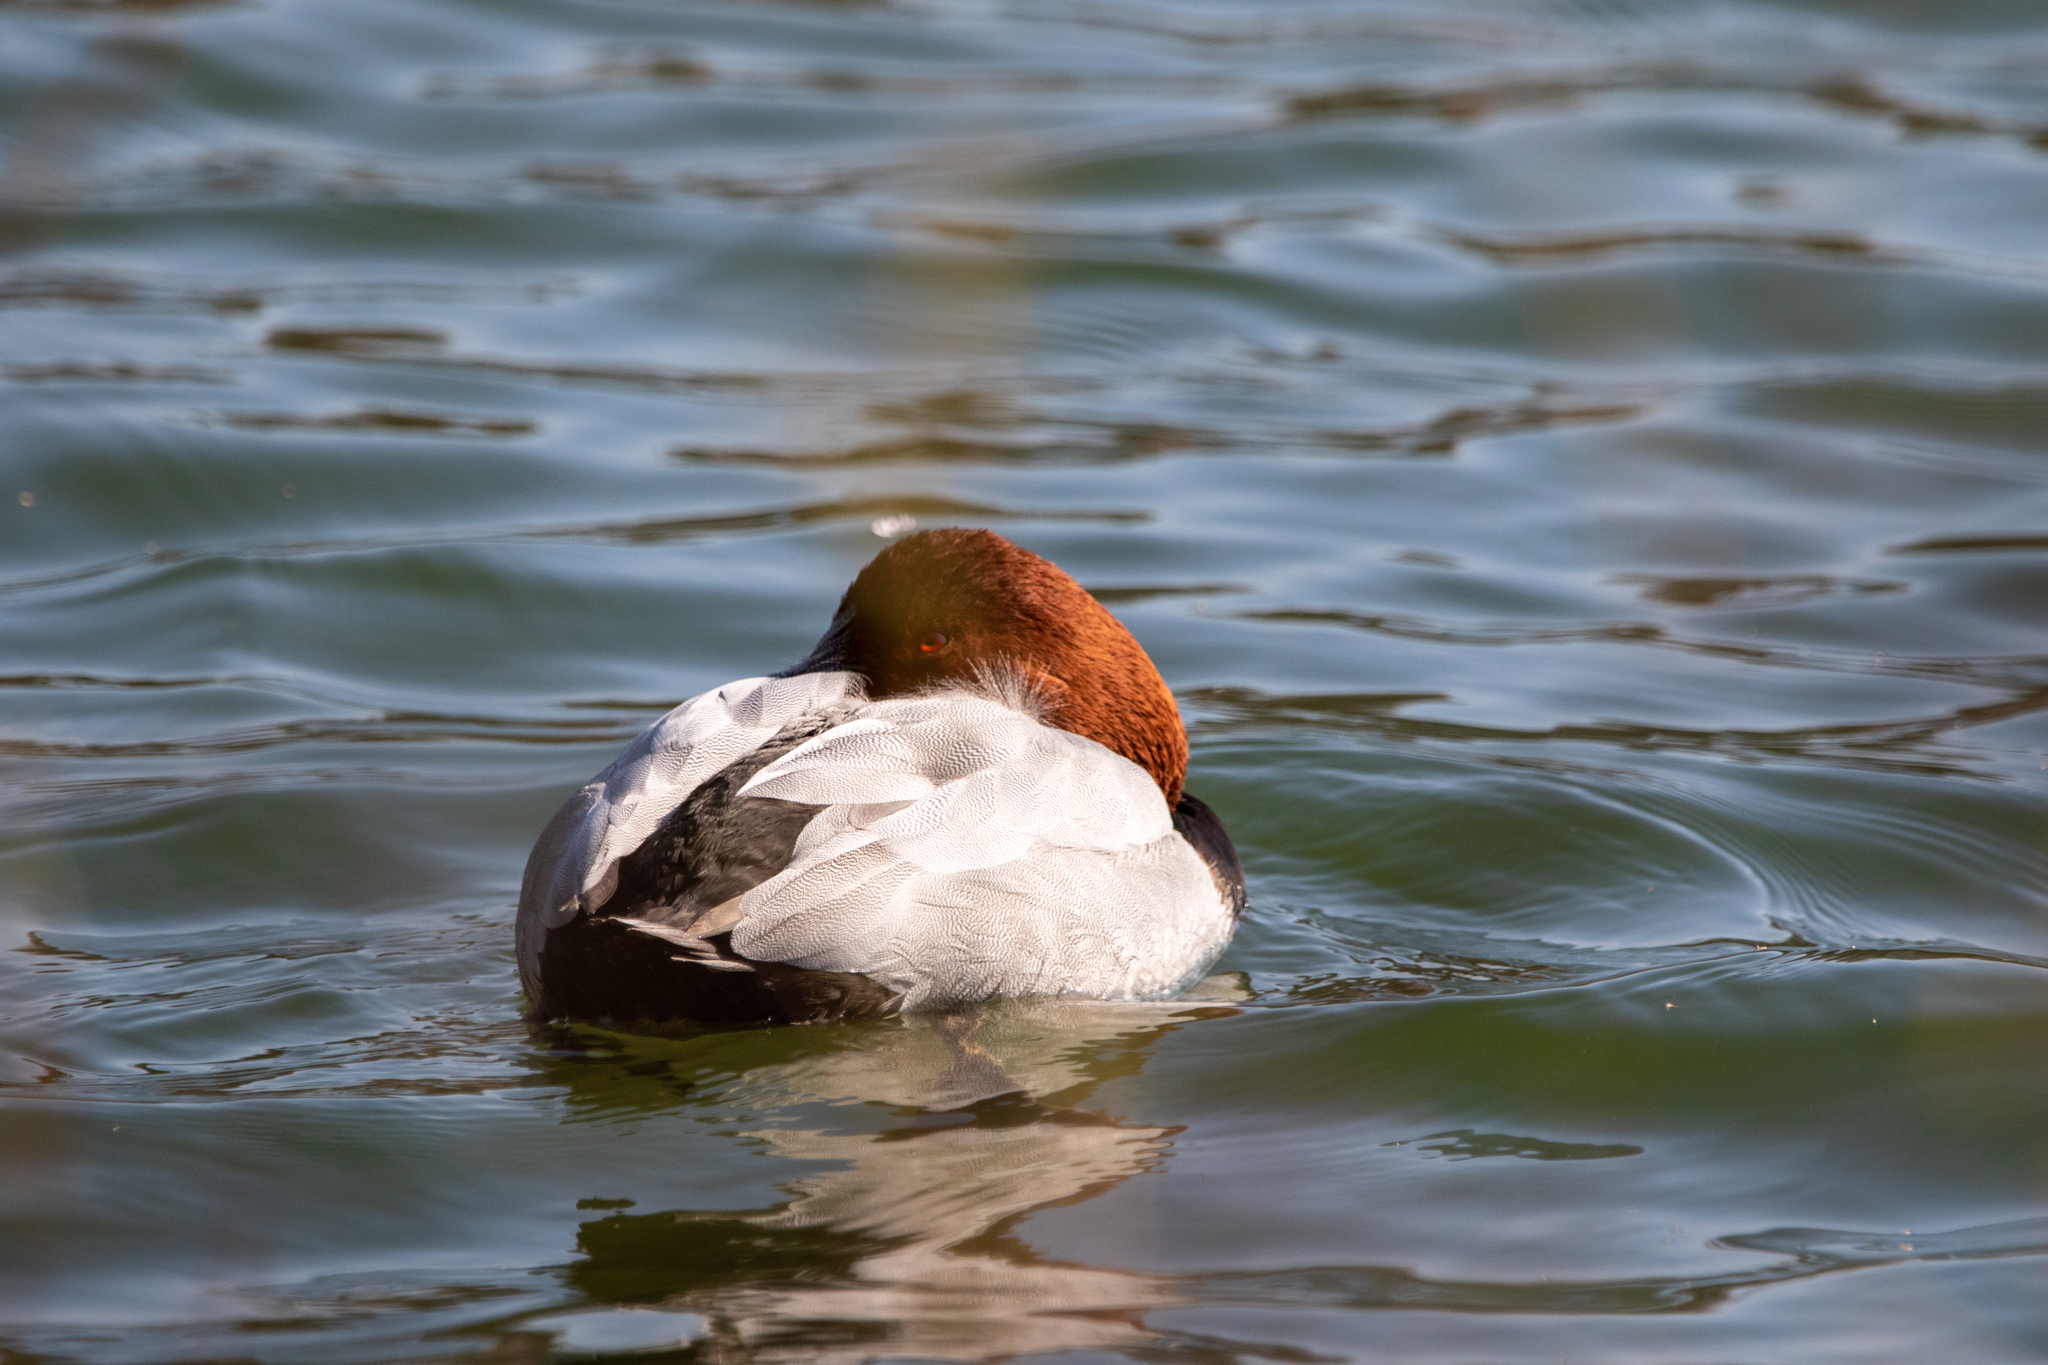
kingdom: Animalia
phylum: Chordata
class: Aves
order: Anseriformes
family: Anatidae
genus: Aythya
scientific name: Aythya ferina
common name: Common pochard
